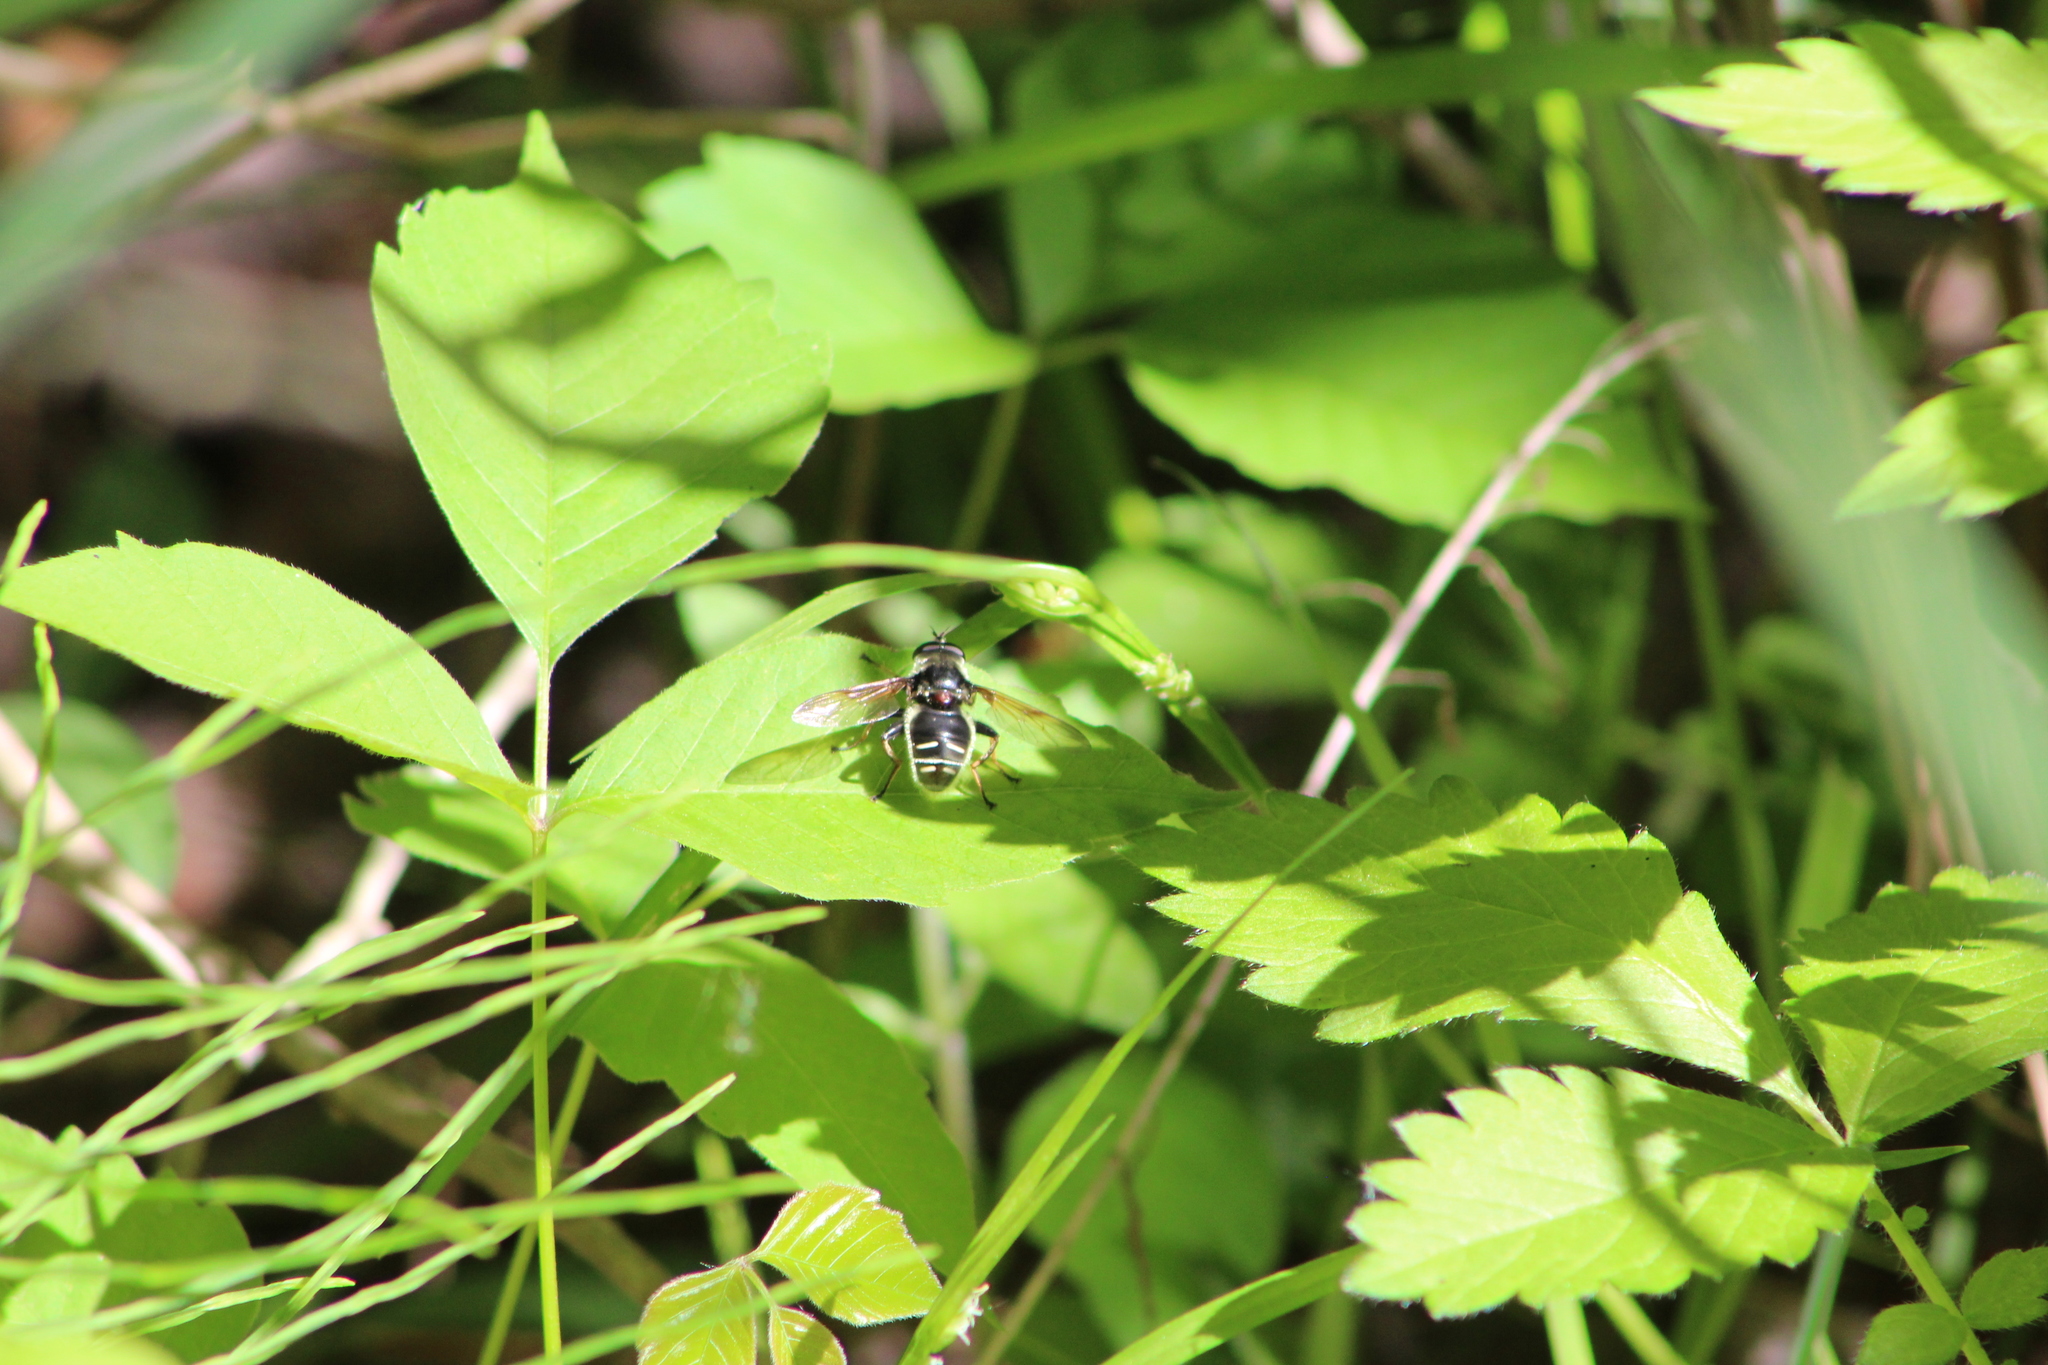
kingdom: Animalia
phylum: Arthropoda
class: Insecta
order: Diptera
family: Syrphidae
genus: Sericomyia
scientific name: Sericomyia militaris
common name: Narrow-banded pond fly
